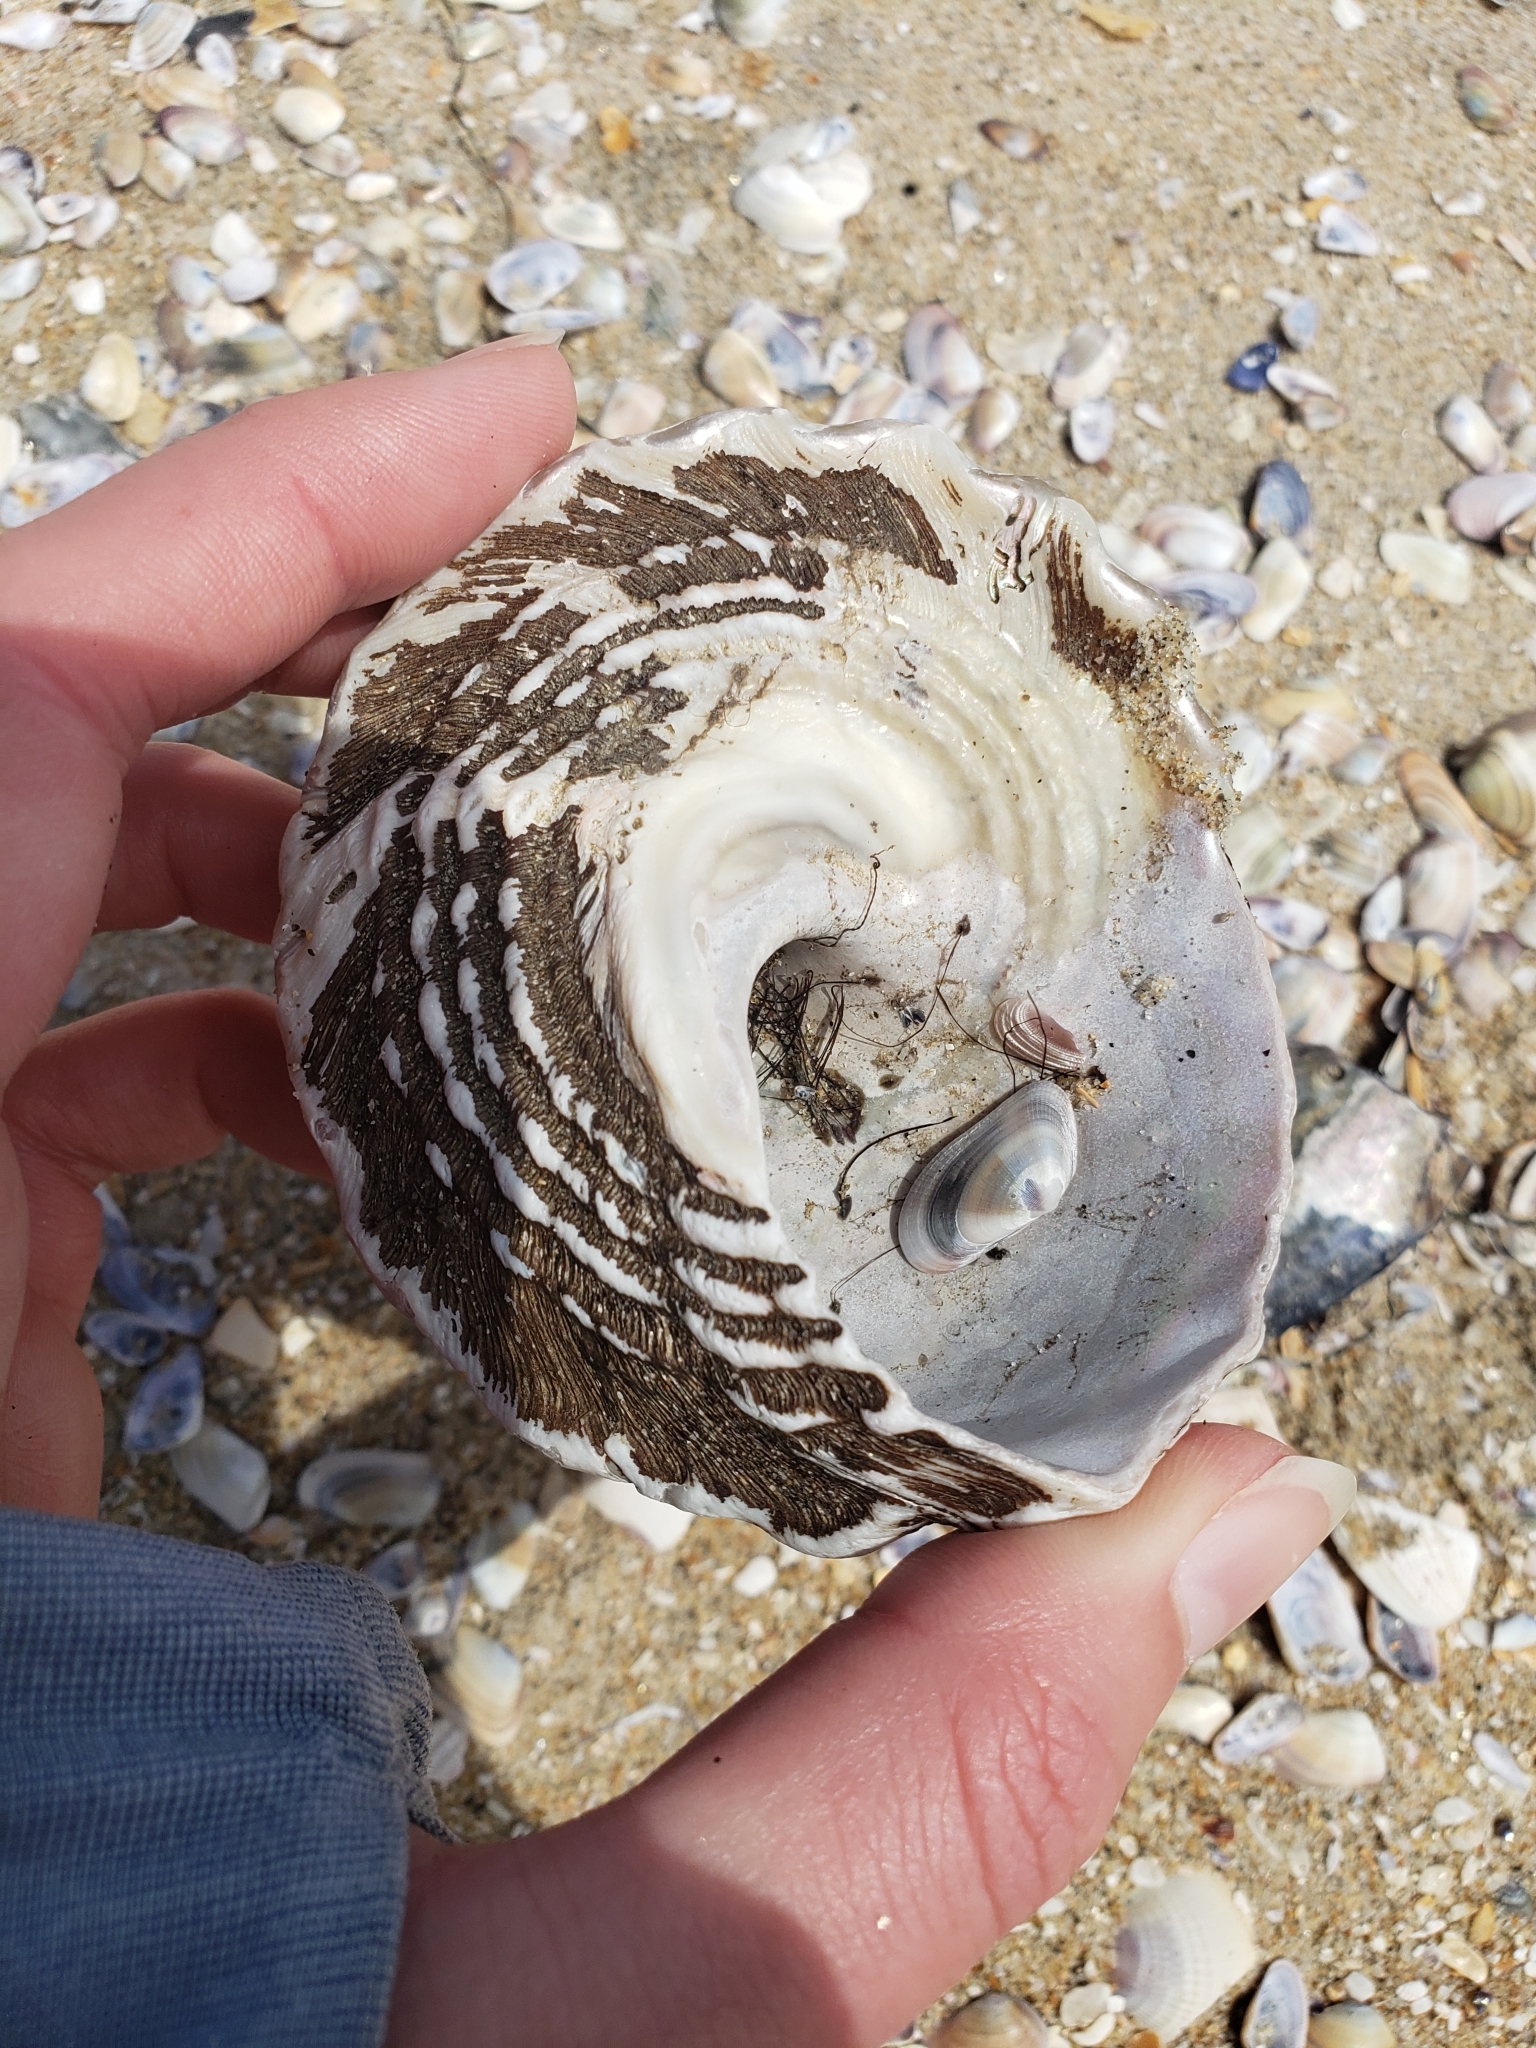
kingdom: Animalia
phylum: Mollusca
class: Gastropoda
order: Trochida
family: Turbinidae
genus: Megastraea
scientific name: Megastraea undosa
